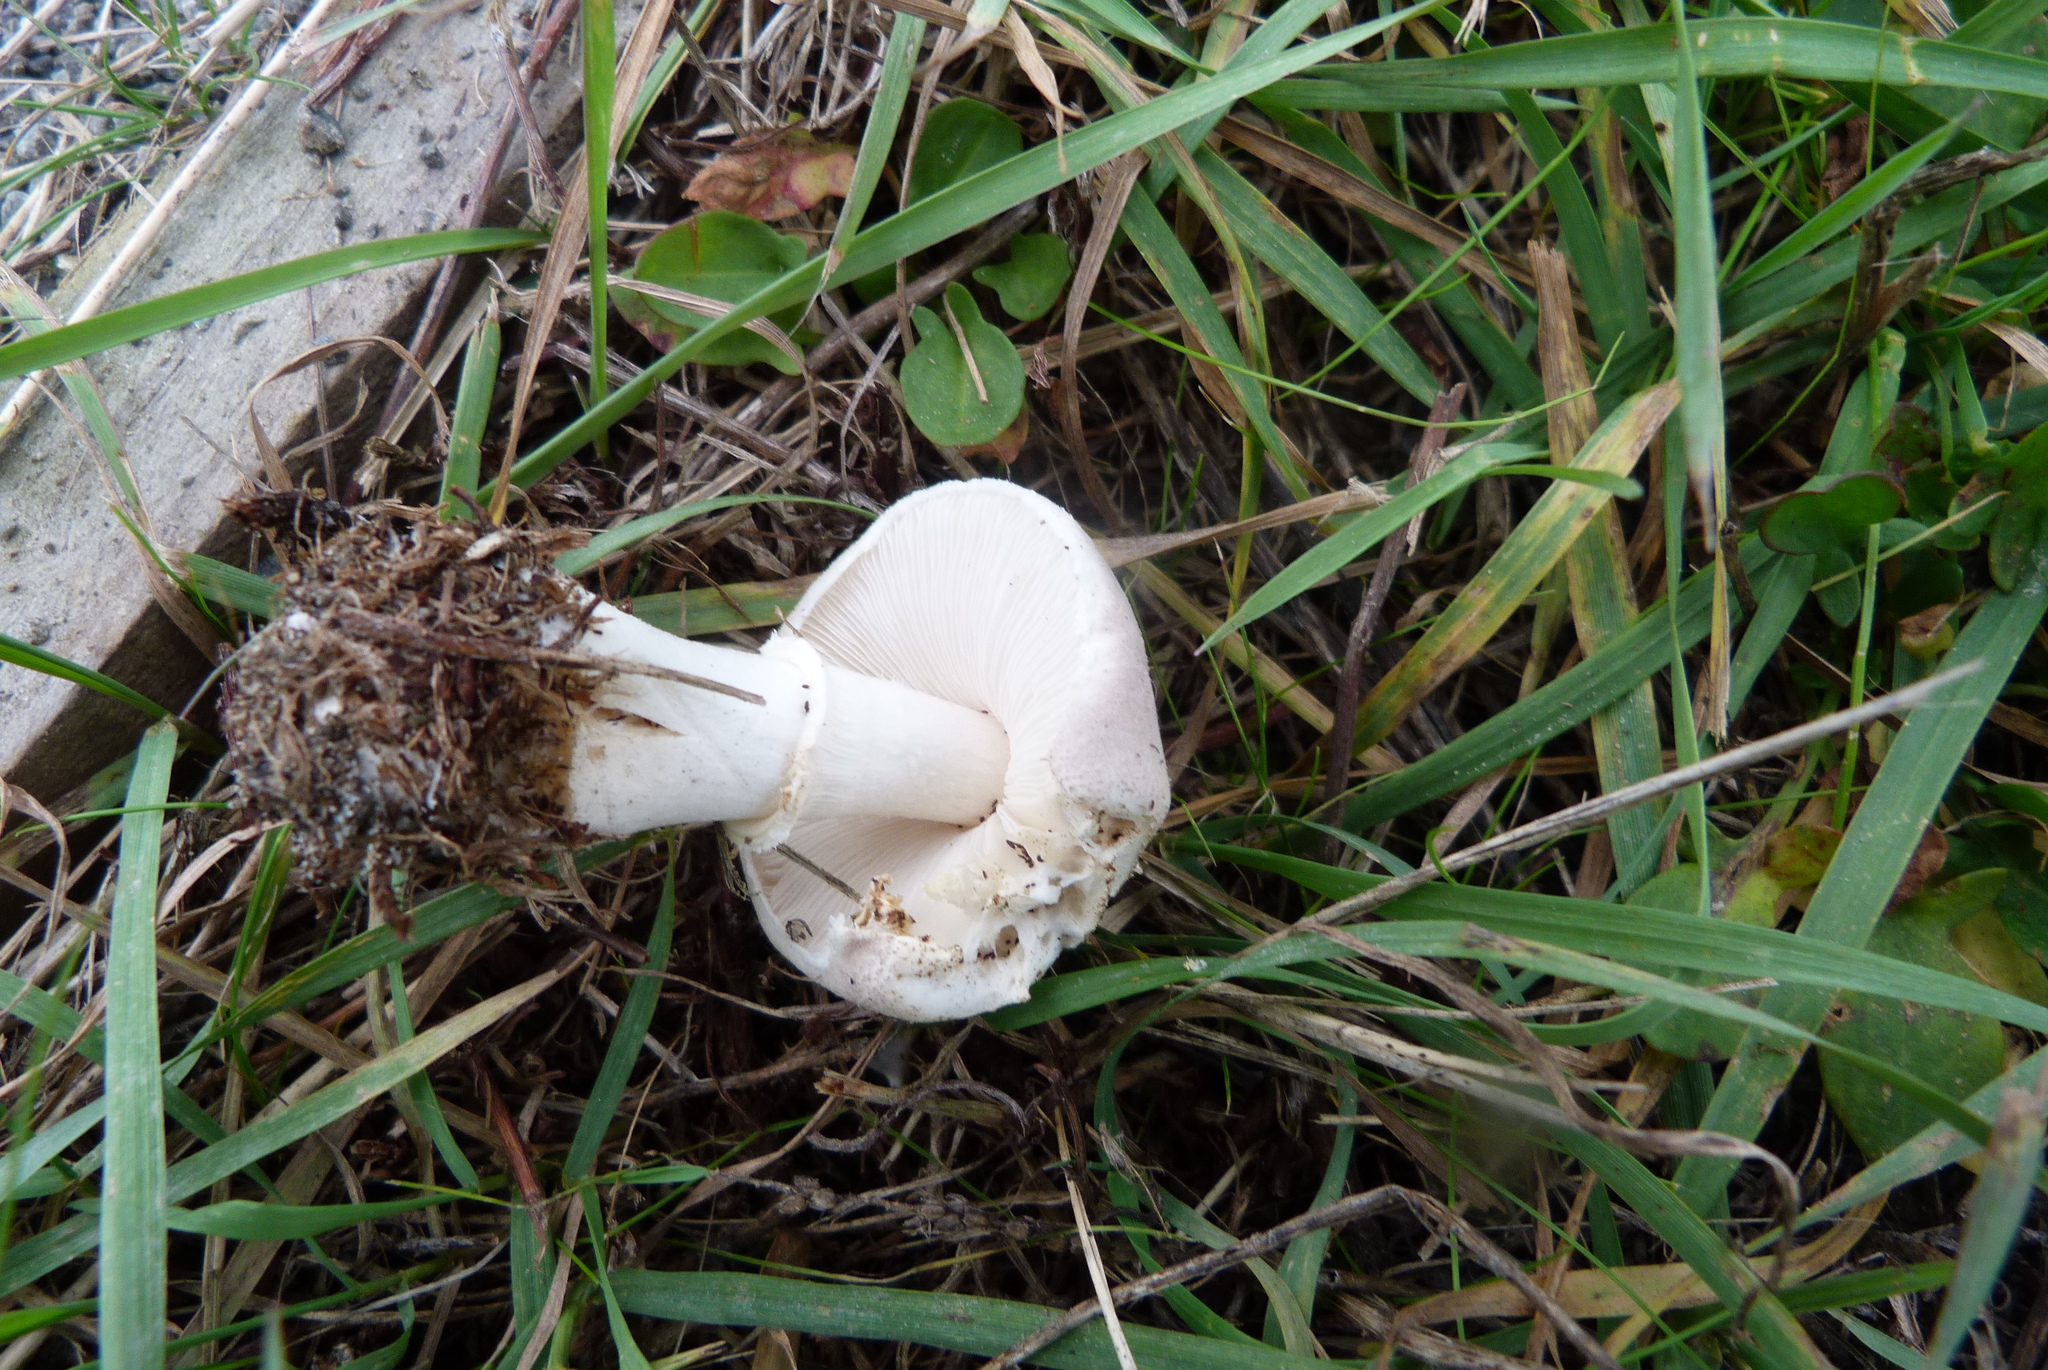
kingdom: Fungi
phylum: Basidiomycota
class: Agaricomycetes
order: Agaricales
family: Agaricaceae
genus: Leucoagaricus
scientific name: Leucoagaricus leucothites
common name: White dapperling
